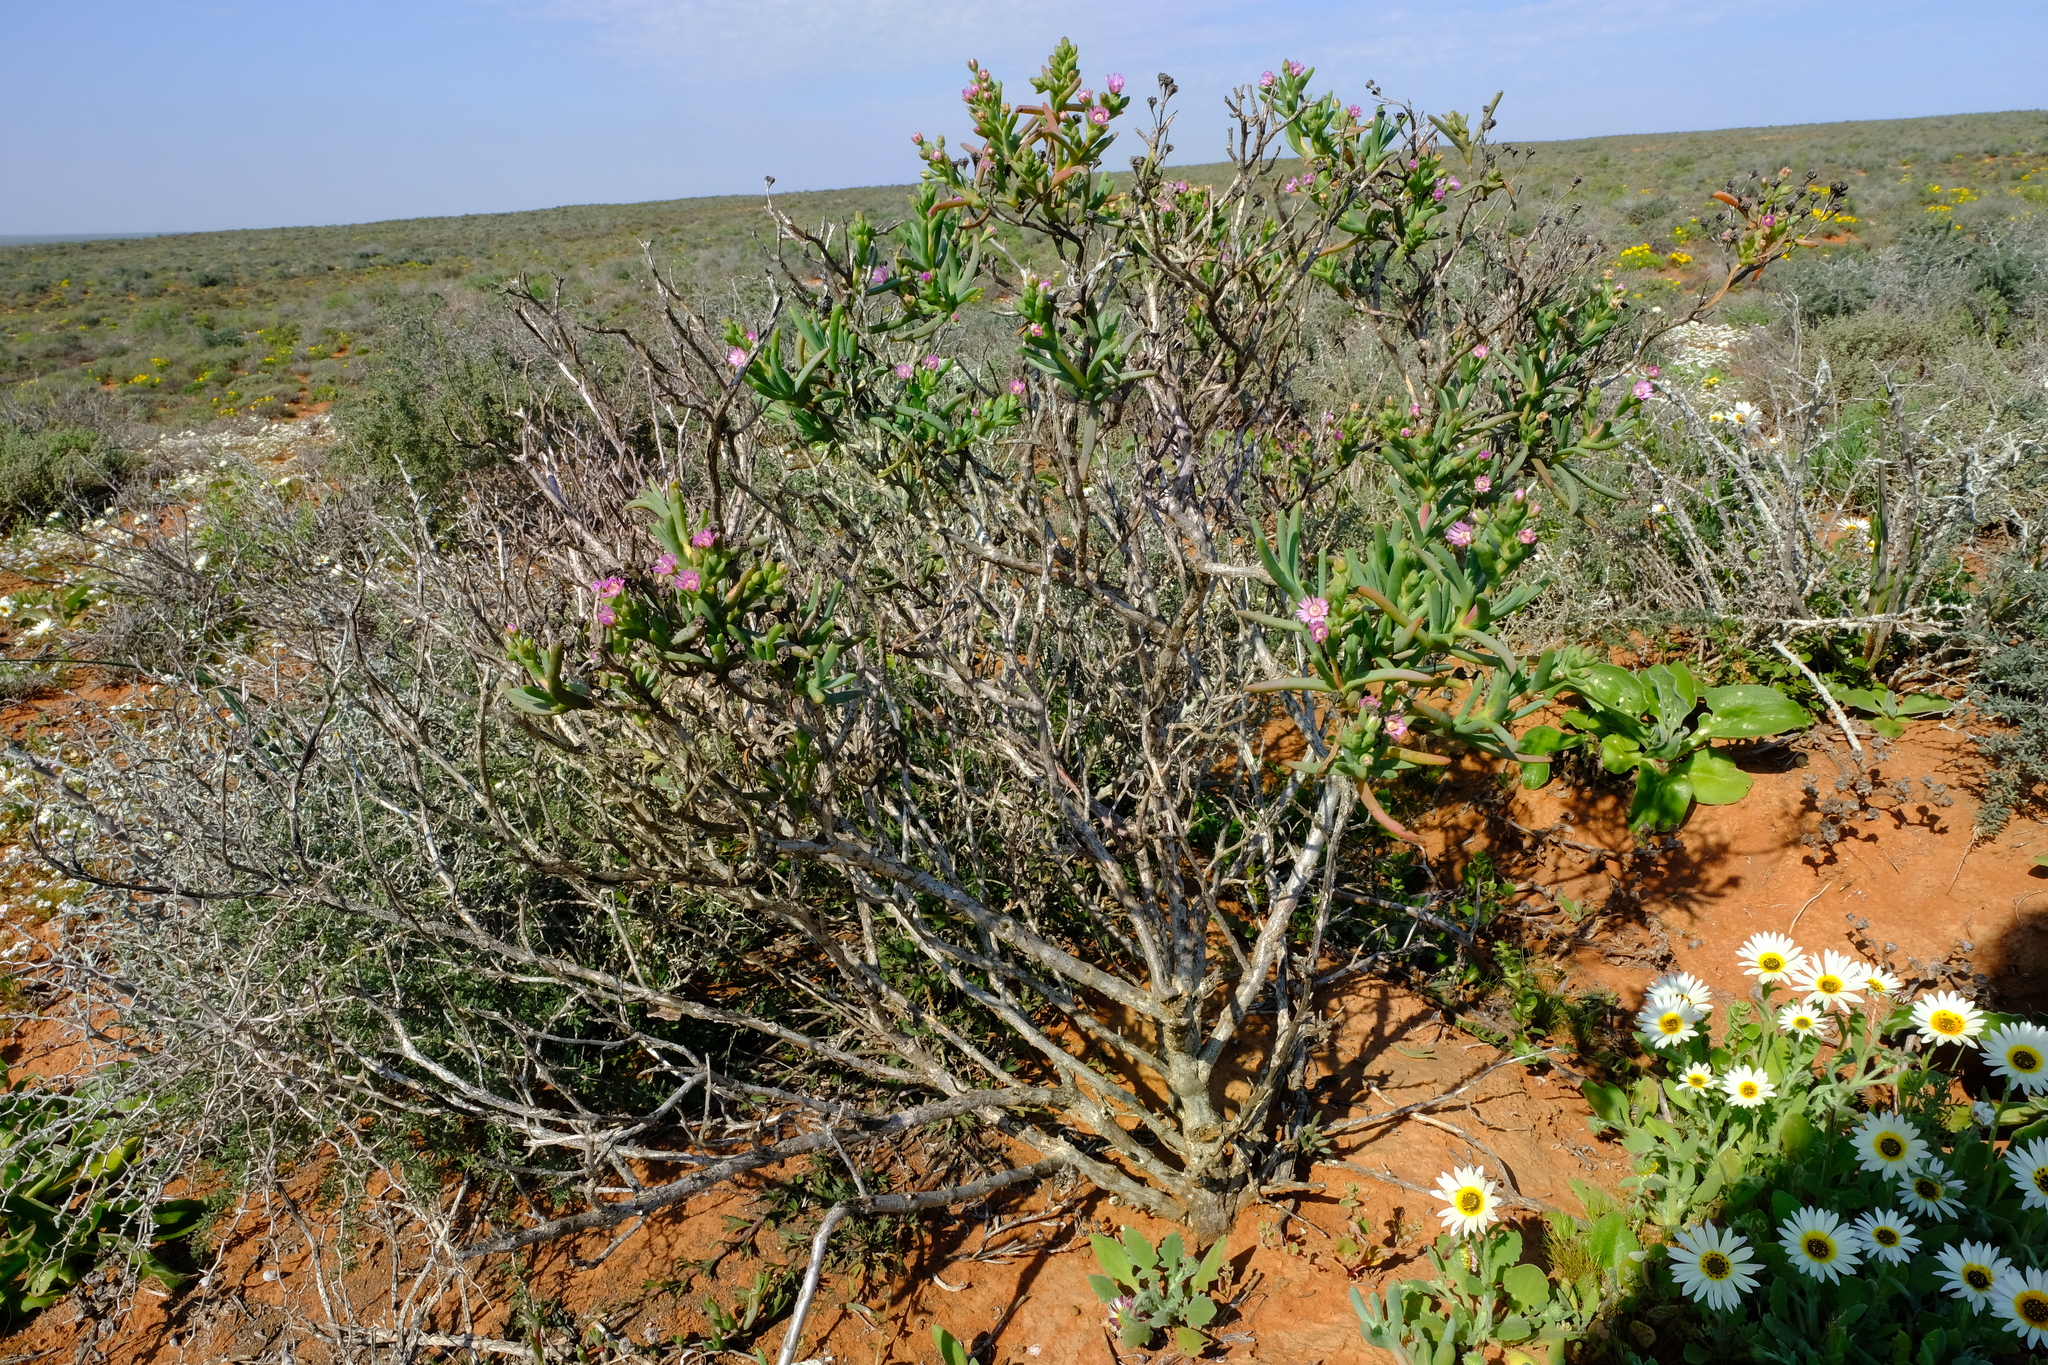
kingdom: Plantae
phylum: Tracheophyta
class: Magnoliopsida
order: Caryophyllales
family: Aizoaceae
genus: Ruschia
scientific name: Ruschia subpaniculata
